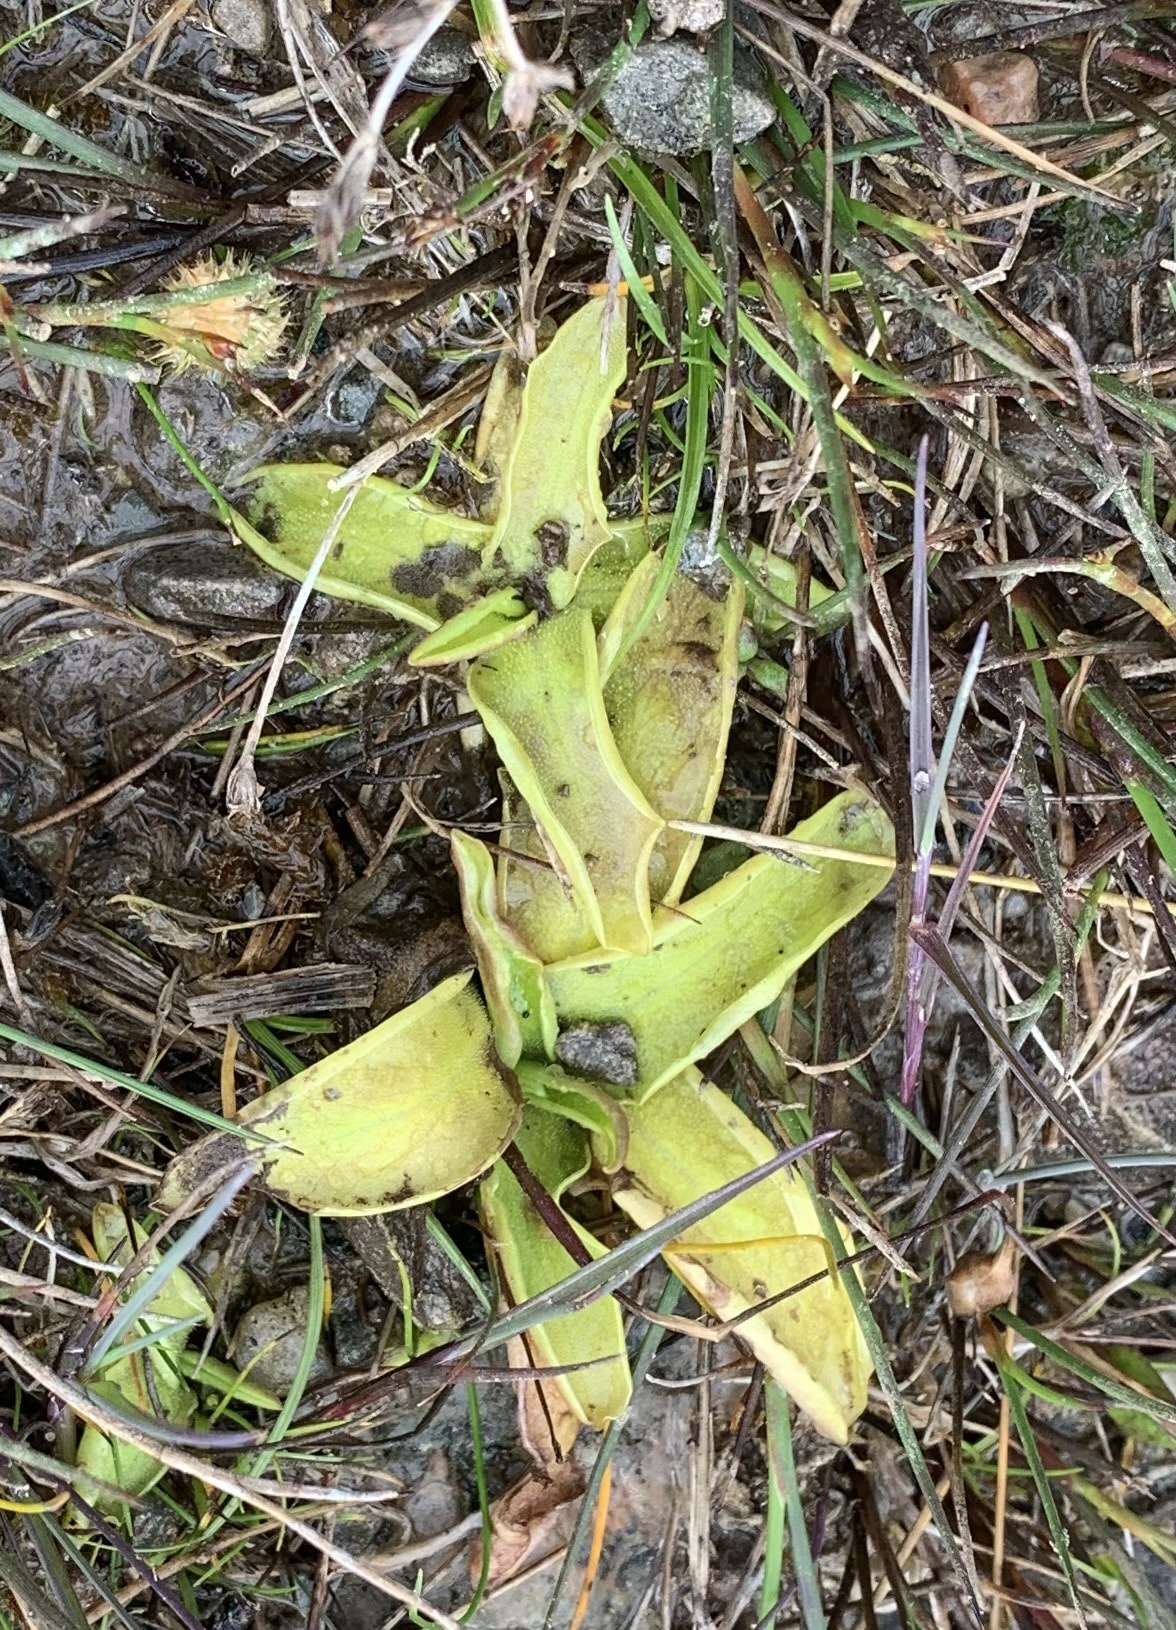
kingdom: Plantae
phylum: Tracheophyta
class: Magnoliopsida
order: Lamiales
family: Lentibulariaceae
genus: Pinguicula
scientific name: Pinguicula vulgaris
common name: Common butterwort
